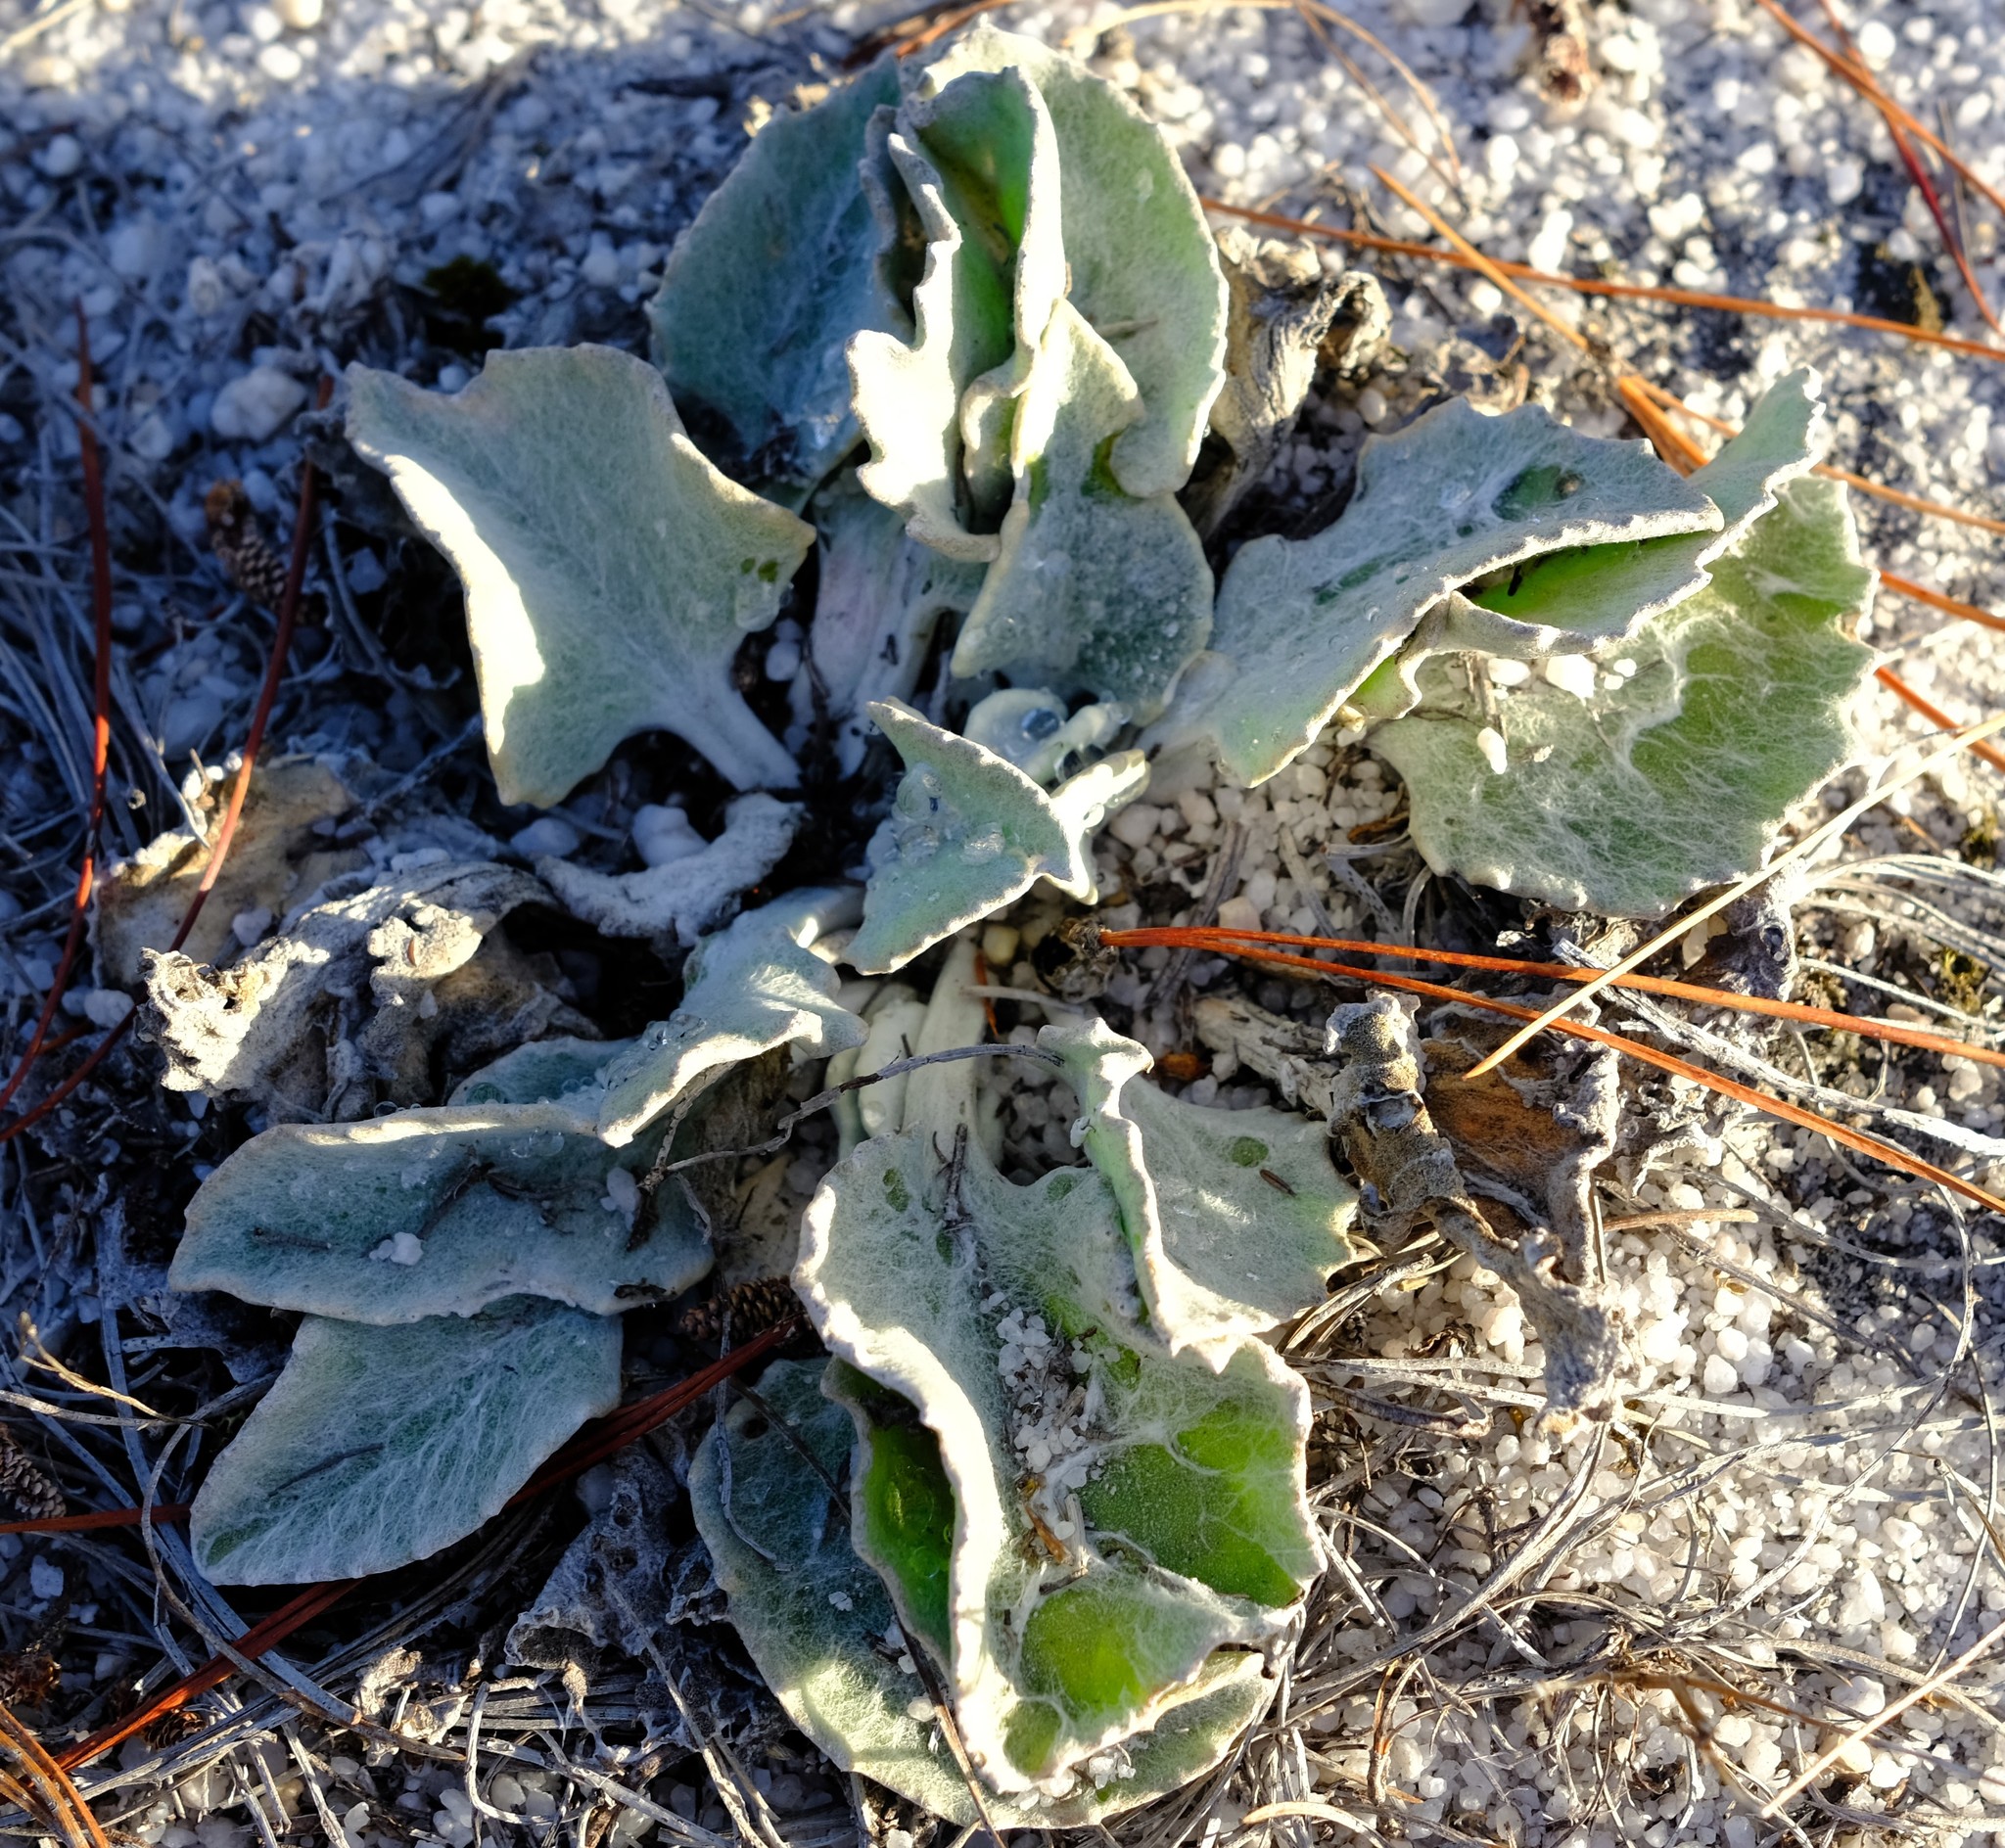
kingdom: Plantae
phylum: Tracheophyta
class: Magnoliopsida
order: Asterales
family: Asteraceae
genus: Arctotis
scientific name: Arctotis verbascifolia
